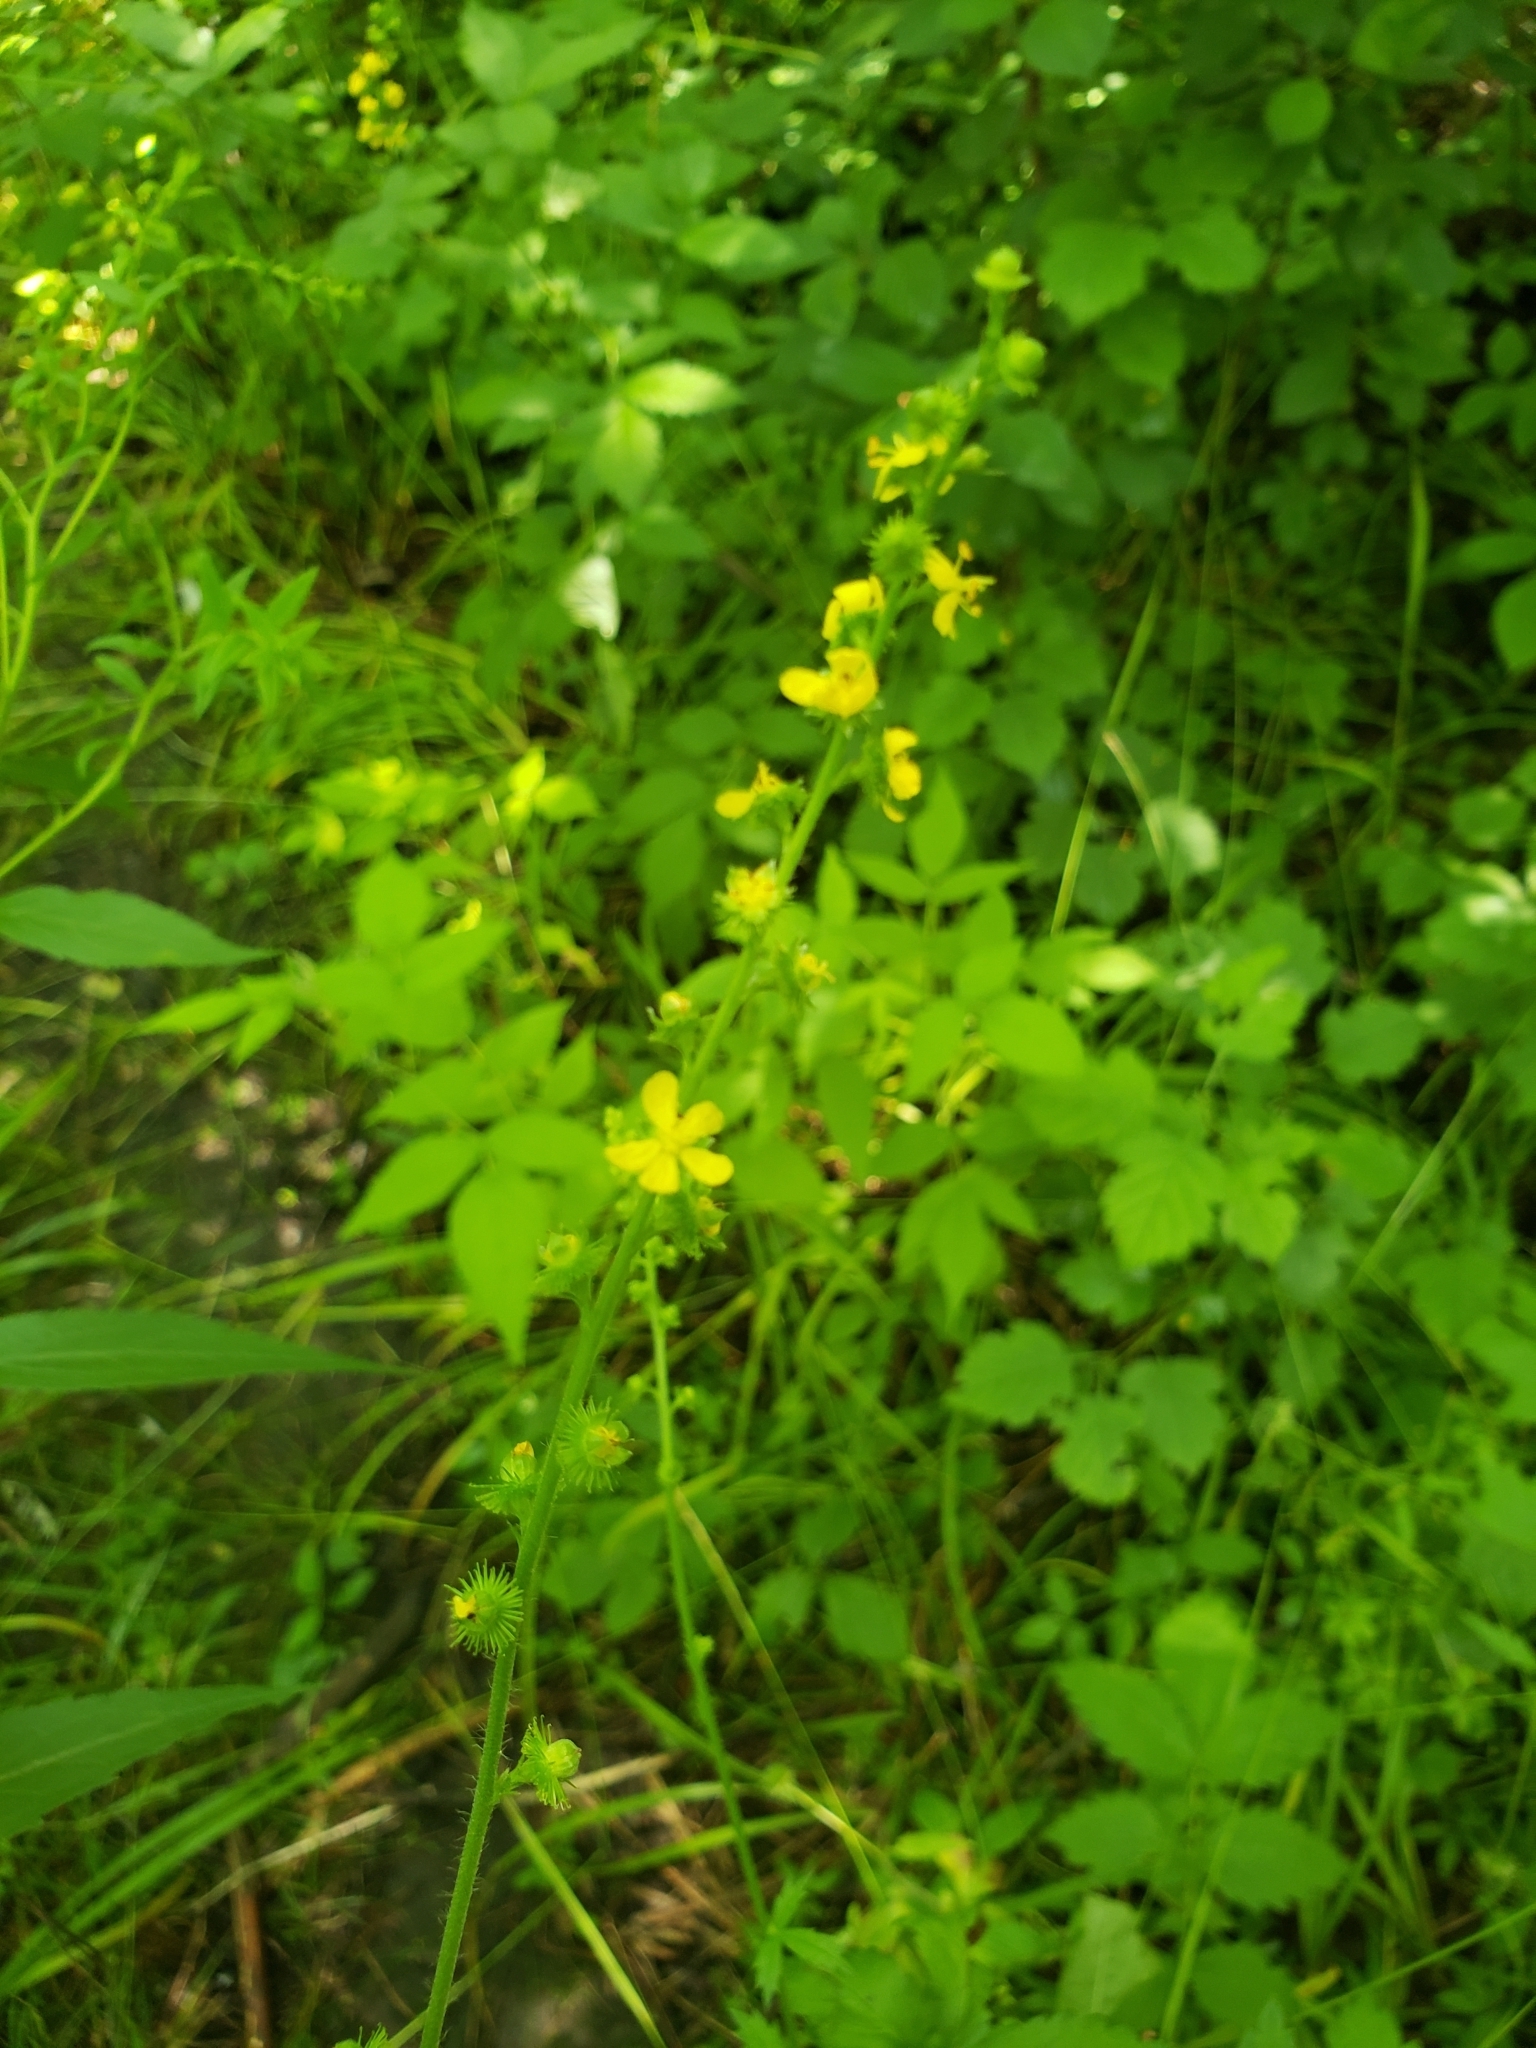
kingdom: Plantae
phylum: Tracheophyta
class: Magnoliopsida
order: Rosales
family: Rosaceae
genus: Agrimonia
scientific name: Agrimonia gryposepala
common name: Common agrimony
